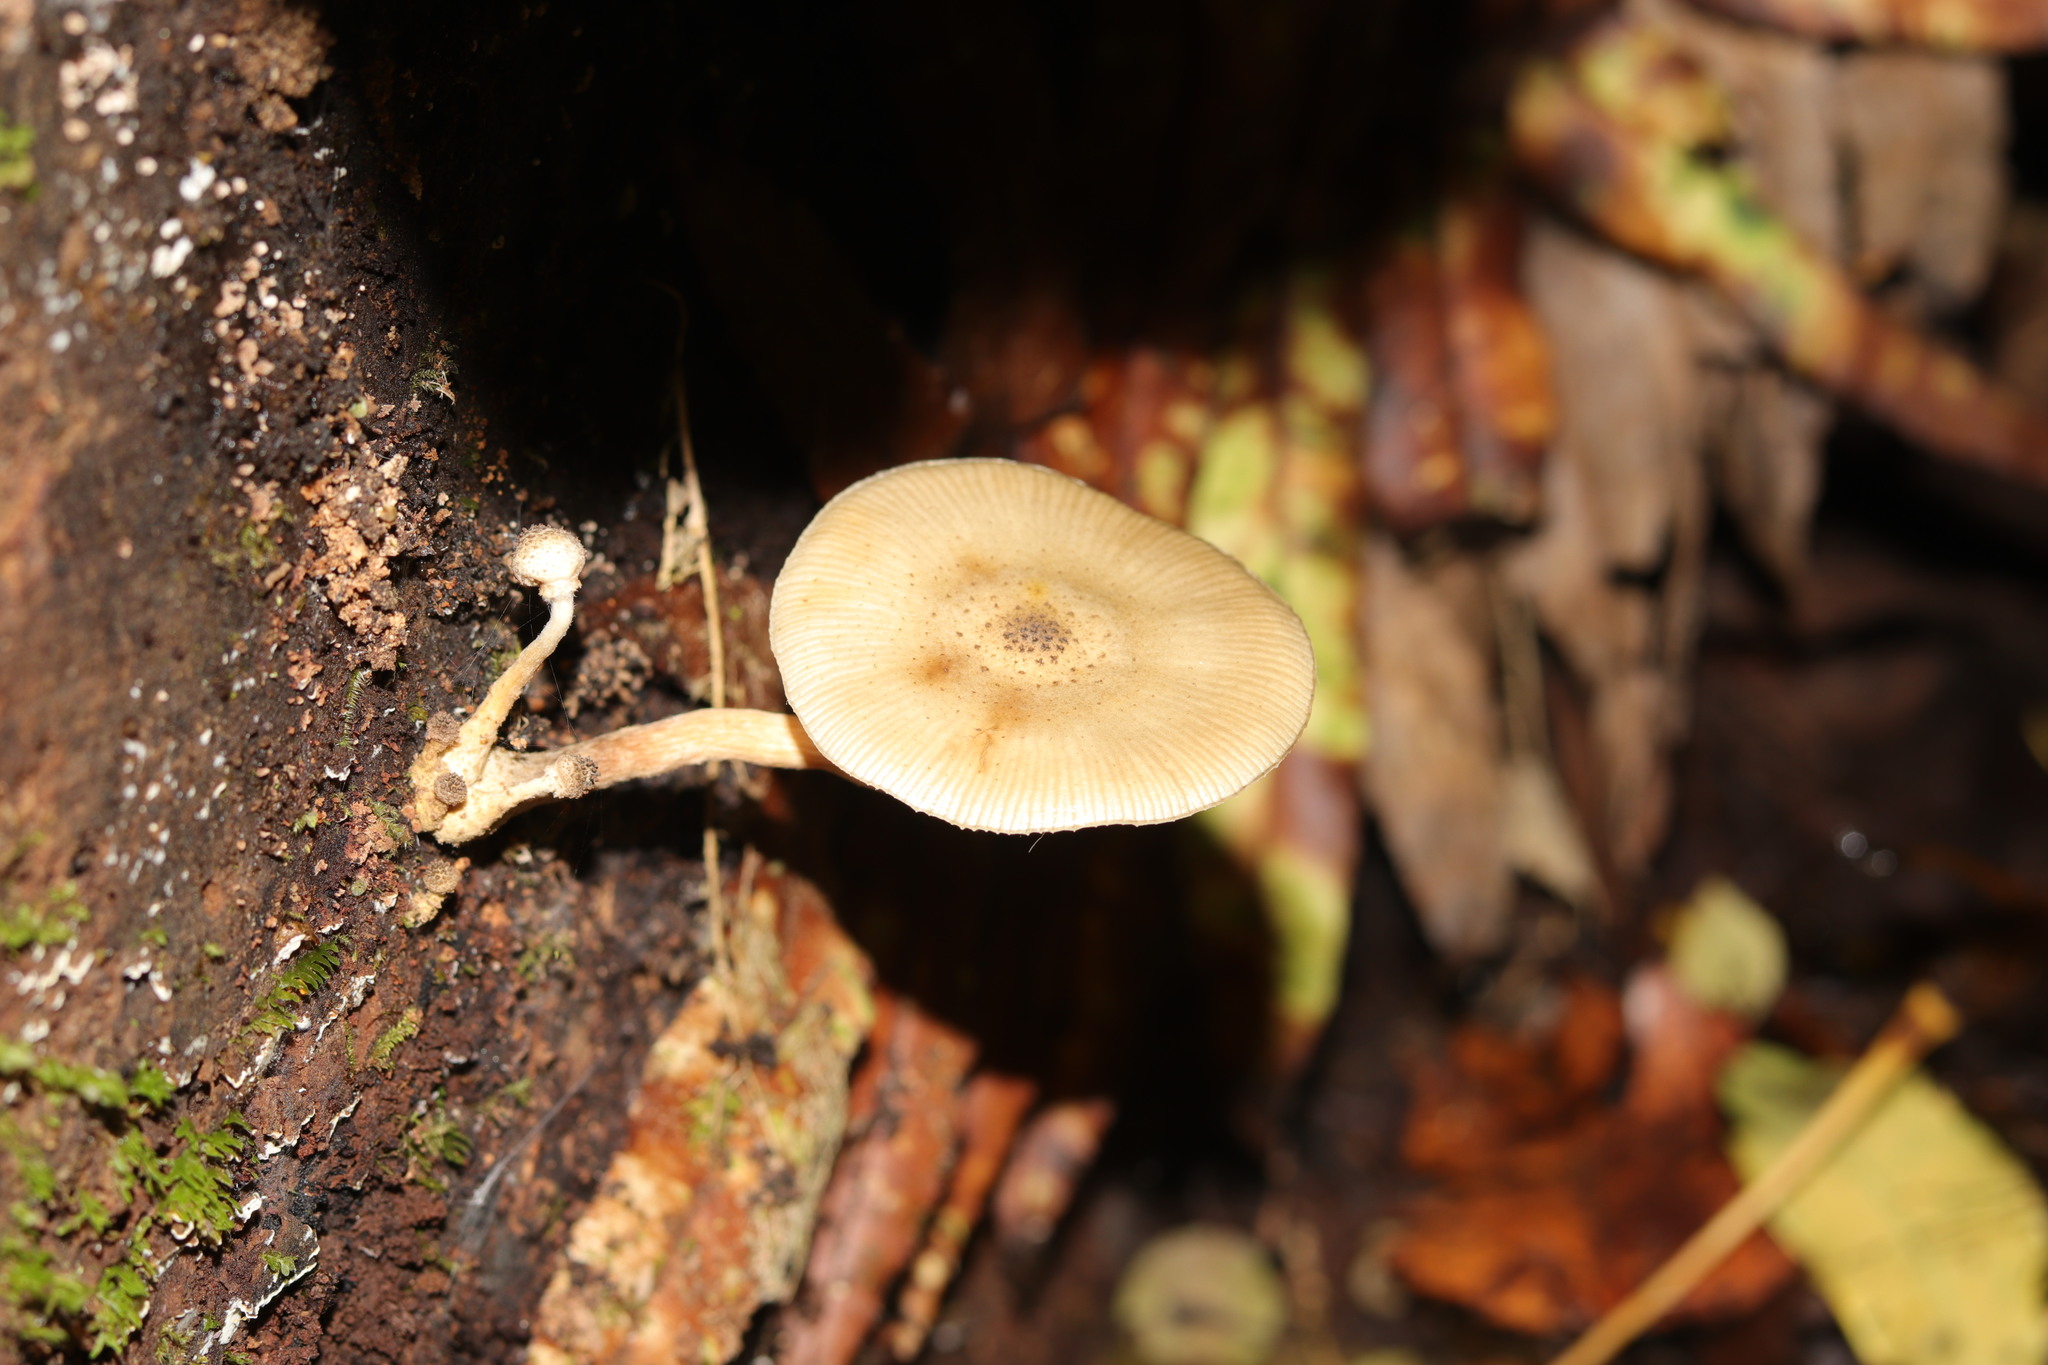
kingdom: Fungi
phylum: Basidiomycota
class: Agaricomycetes
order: Agaricales
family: Physalacriaceae
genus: Armillaria
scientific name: Armillaria novae-zelandiae
